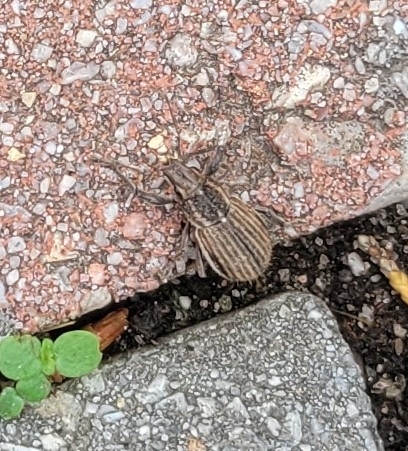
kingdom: Animalia
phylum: Arthropoda
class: Insecta
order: Coleoptera
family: Curculionidae
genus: Naupactus
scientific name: Naupactus leucoloma
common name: Whitefringed beetle
